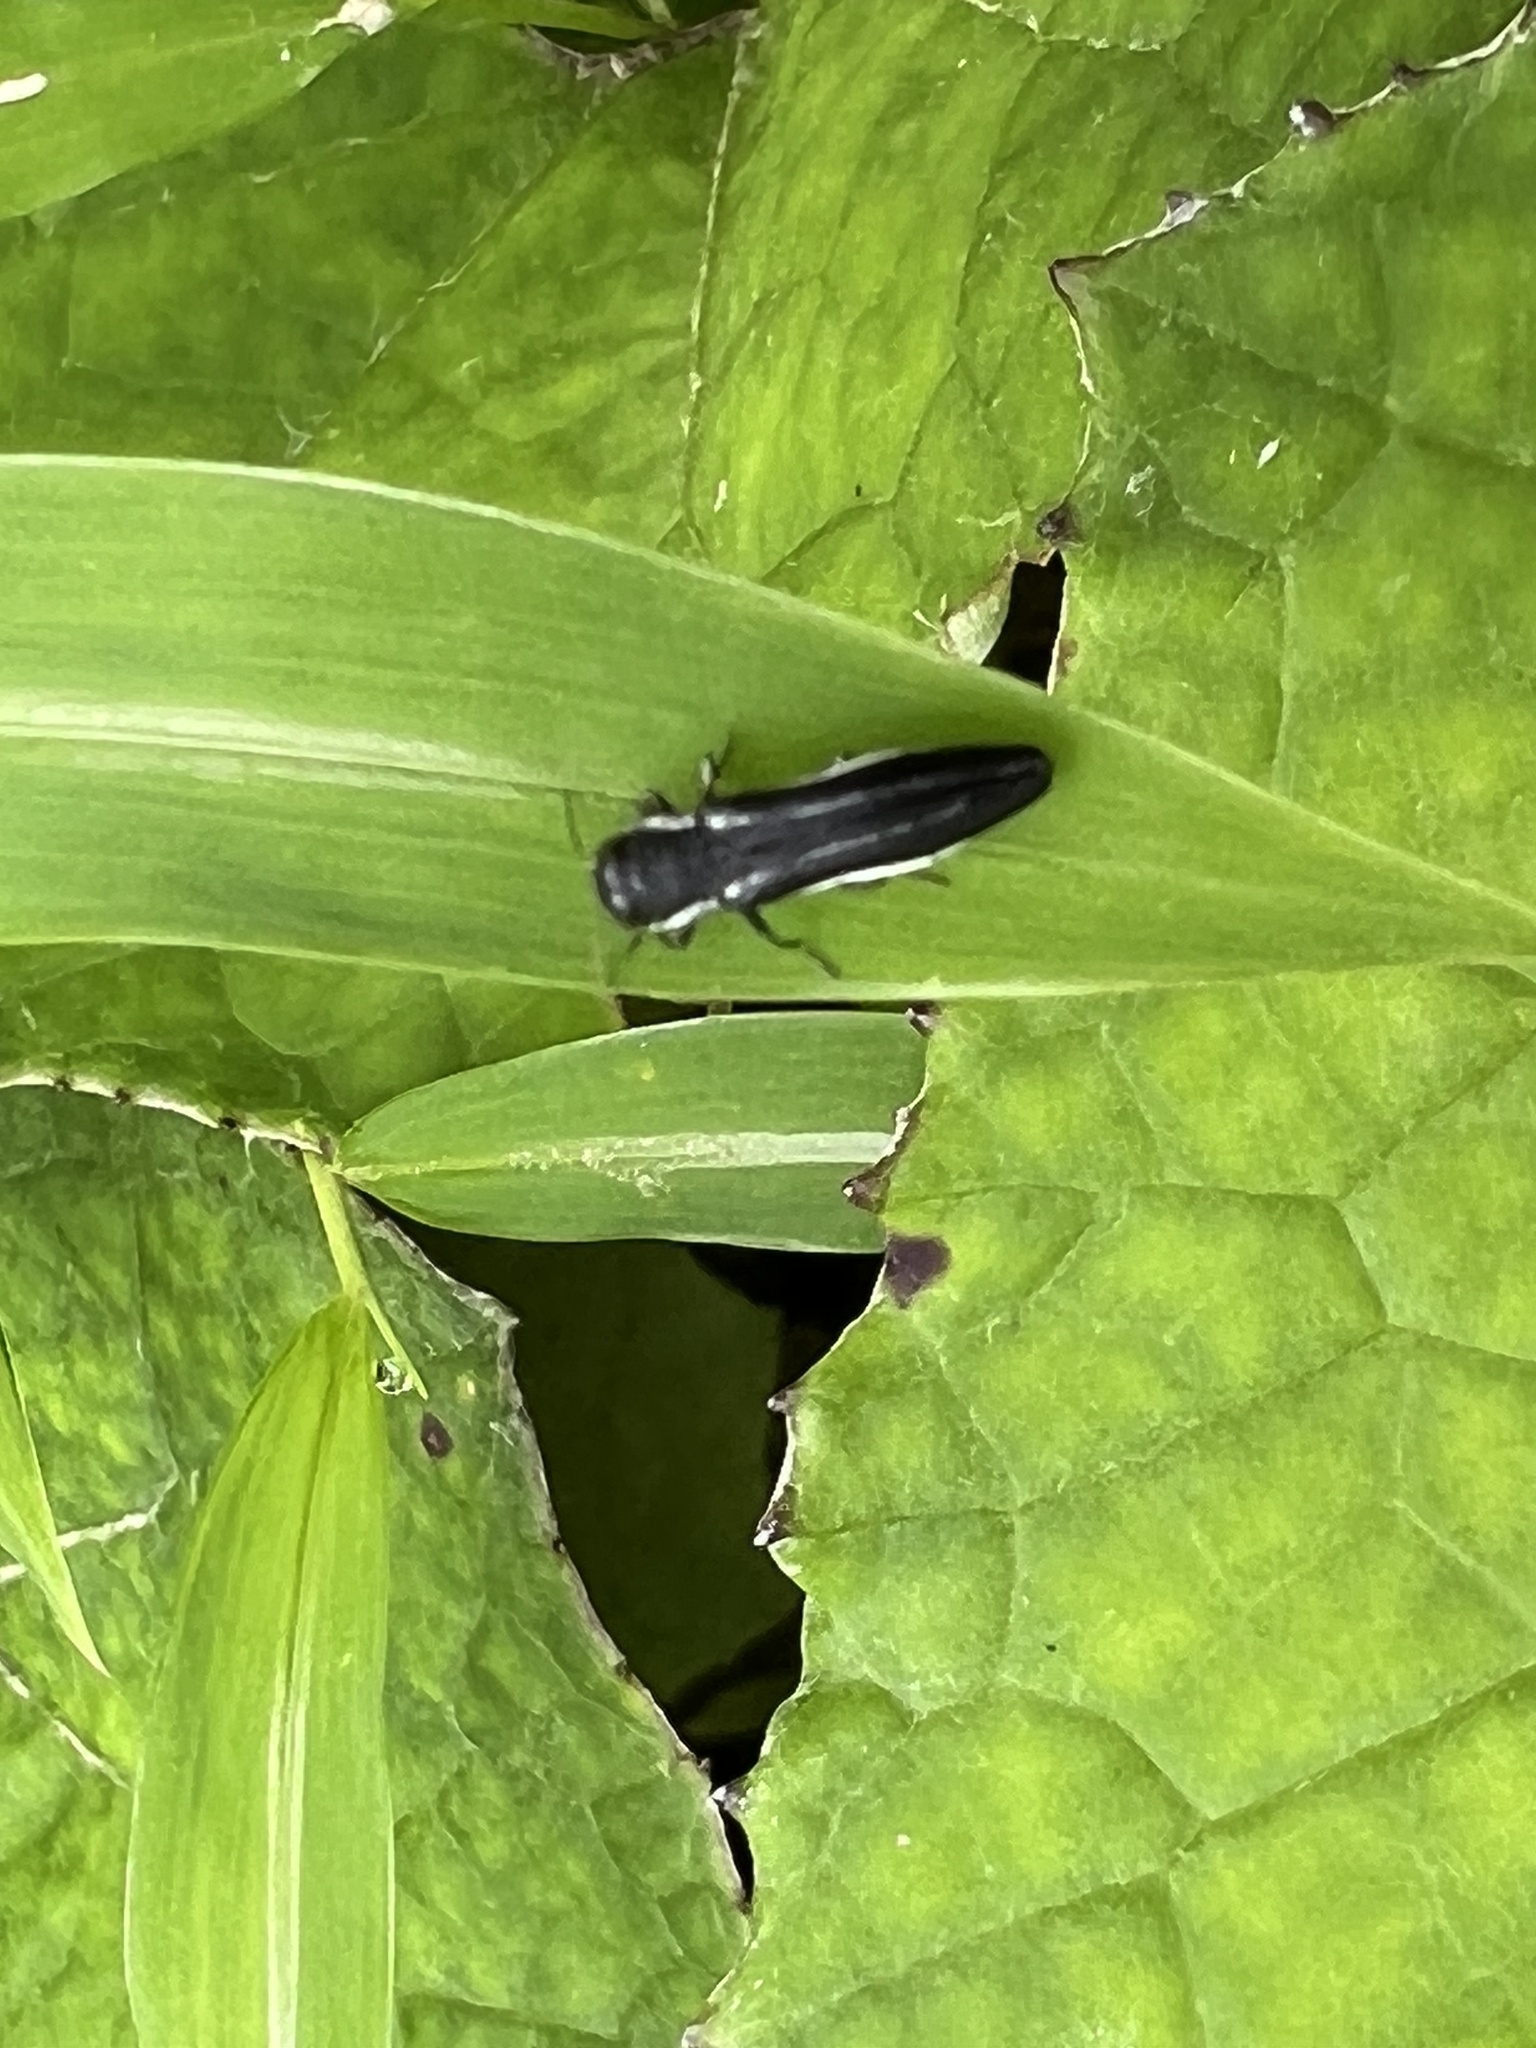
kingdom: Animalia
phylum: Arthropoda
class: Insecta
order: Coleoptera
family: Buprestidae
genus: Agrilus
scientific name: Agrilus bilineatus
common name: Two-lined chestnut borer
